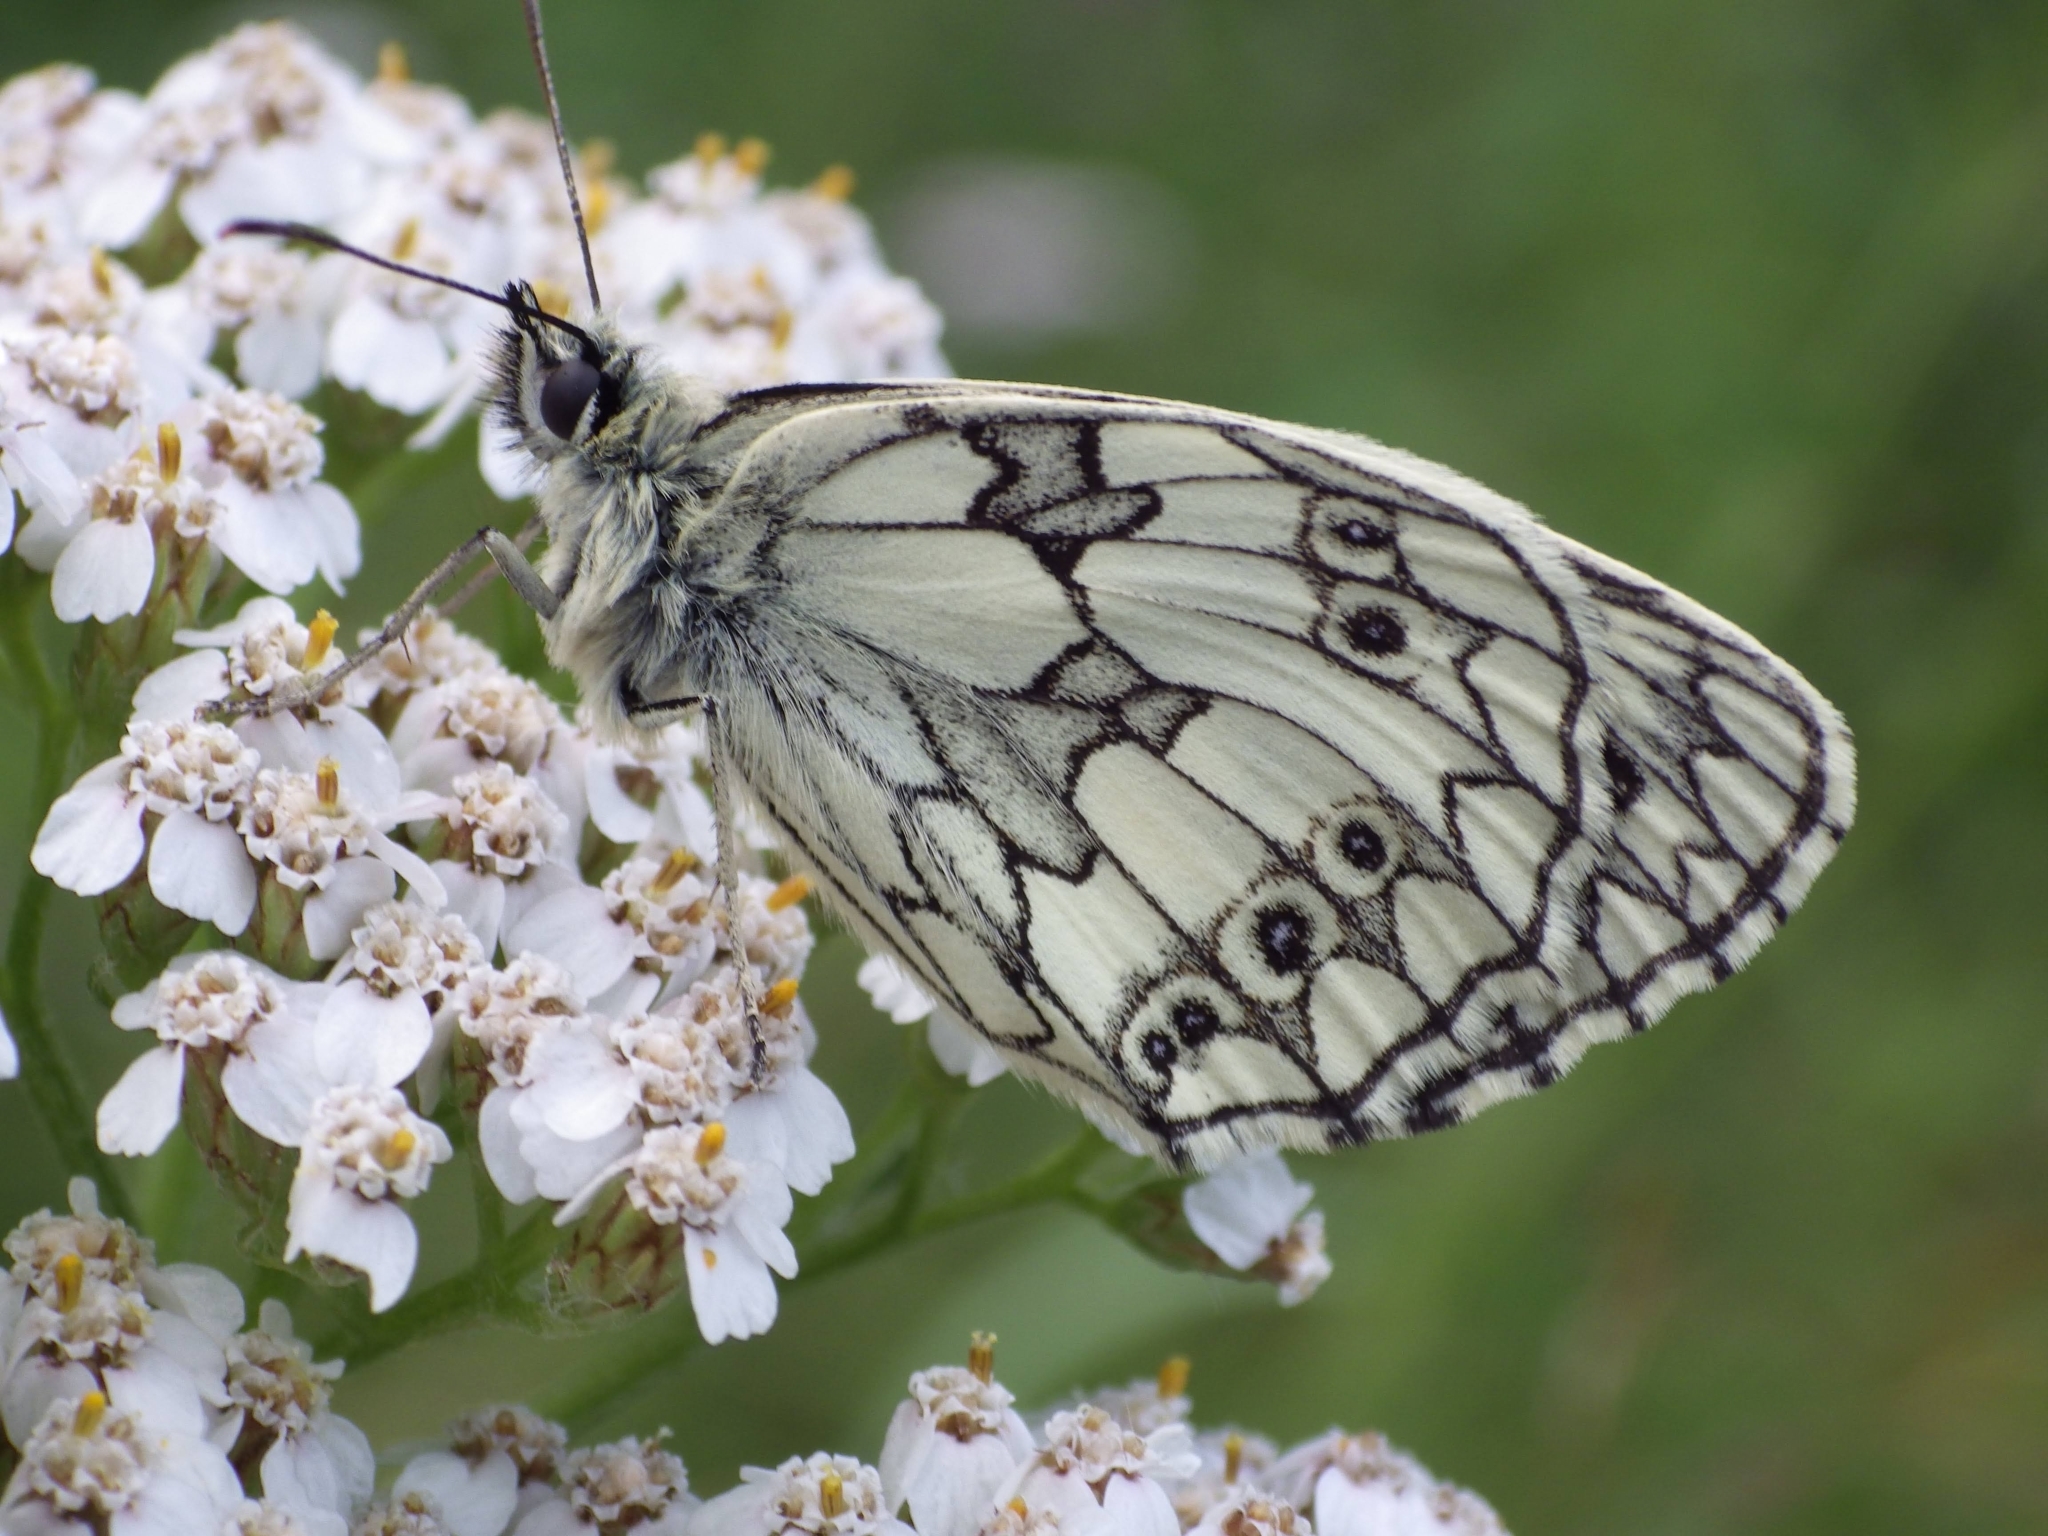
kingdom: Animalia
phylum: Arthropoda
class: Insecta
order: Lepidoptera
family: Nymphalidae
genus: Melanargia
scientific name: Melanargia galathea
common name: Marbled white
